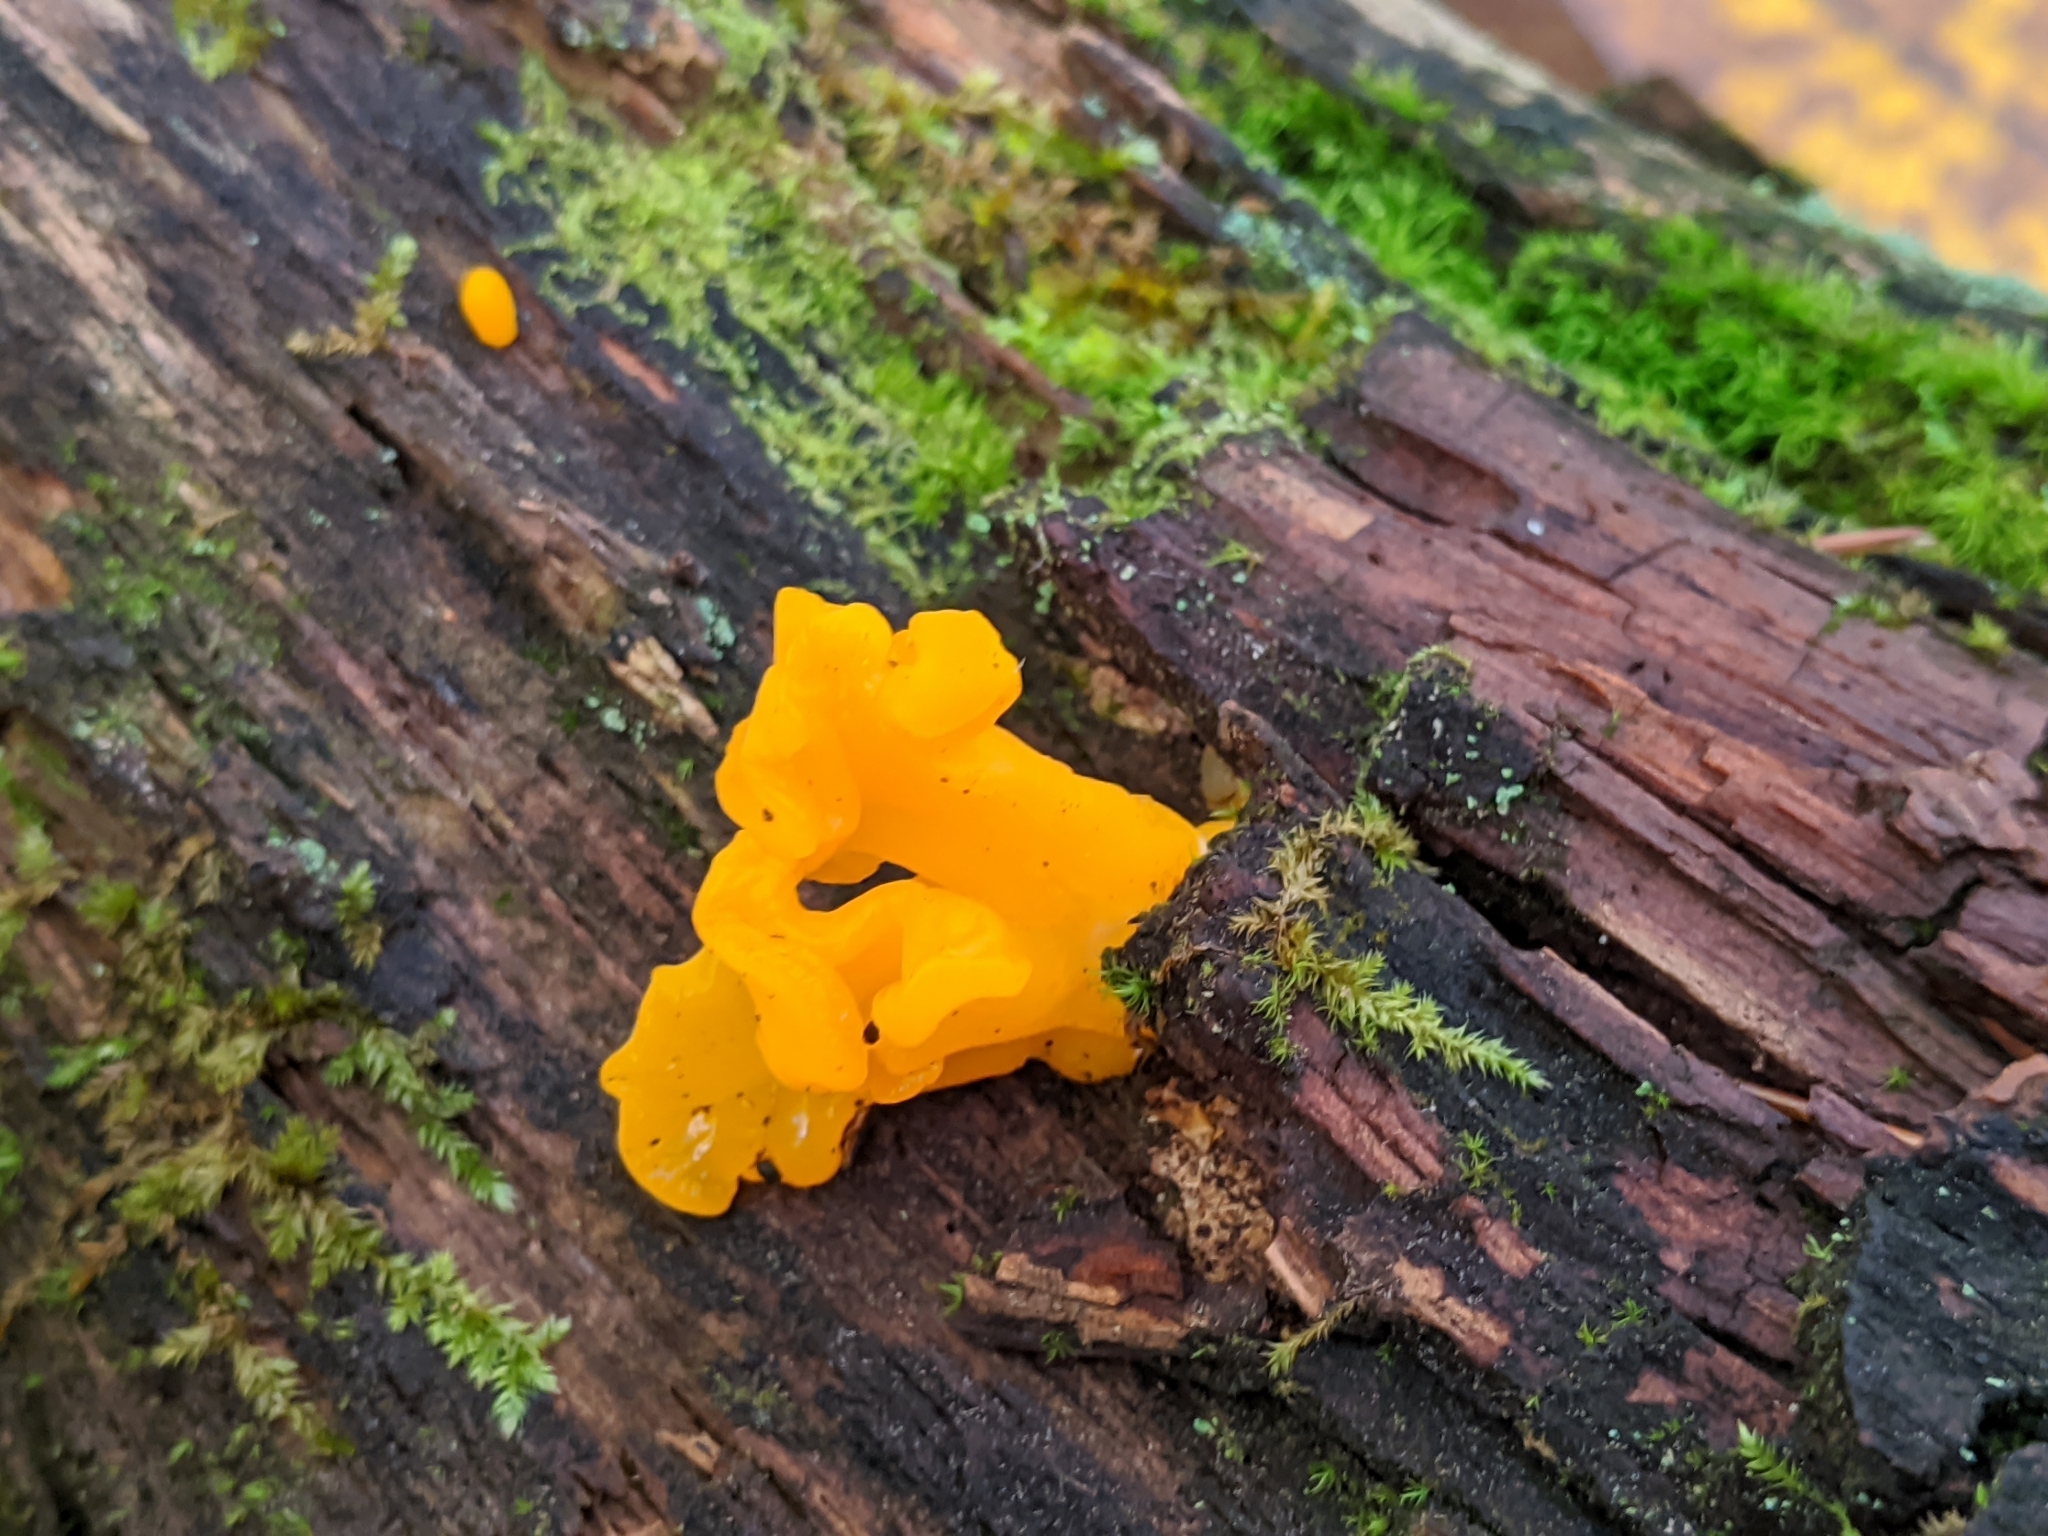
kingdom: Fungi
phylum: Basidiomycota
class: Dacrymycetes
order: Dacrymycetales
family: Dacrymycetaceae
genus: Dacrymyces
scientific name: Dacrymyces chrysospermus
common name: Orange jelly spot
